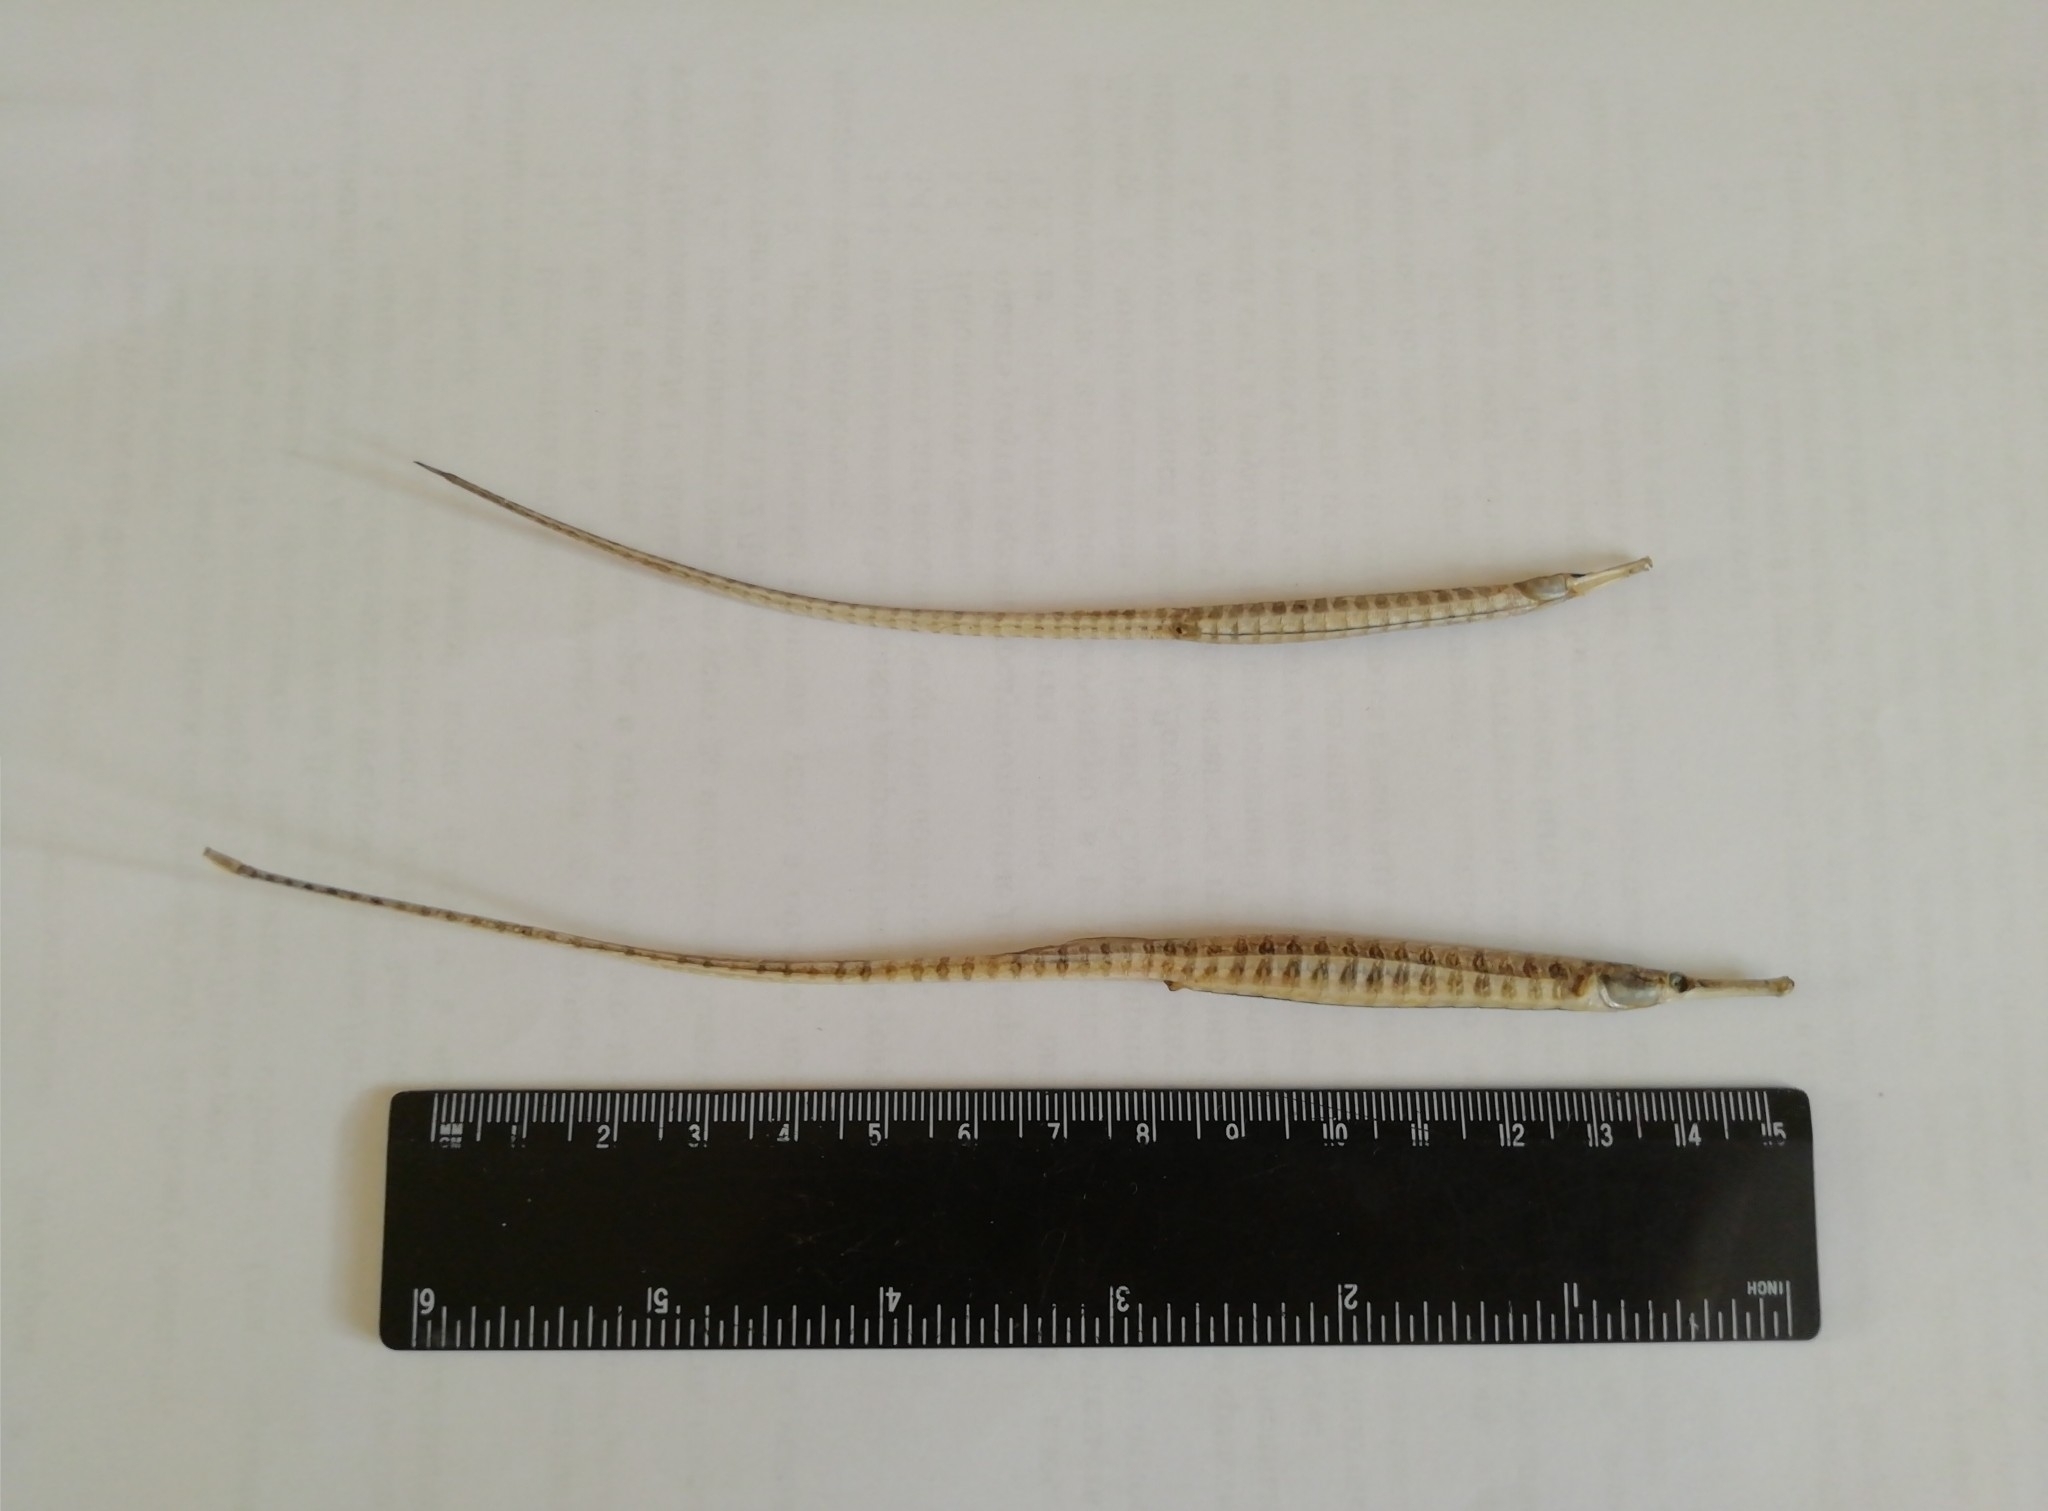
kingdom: Animalia
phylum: Chordata
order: Syngnathiformes
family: Syngnathidae
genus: Syngnathus
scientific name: Syngnathus abaster
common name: Black-striped pipefish
